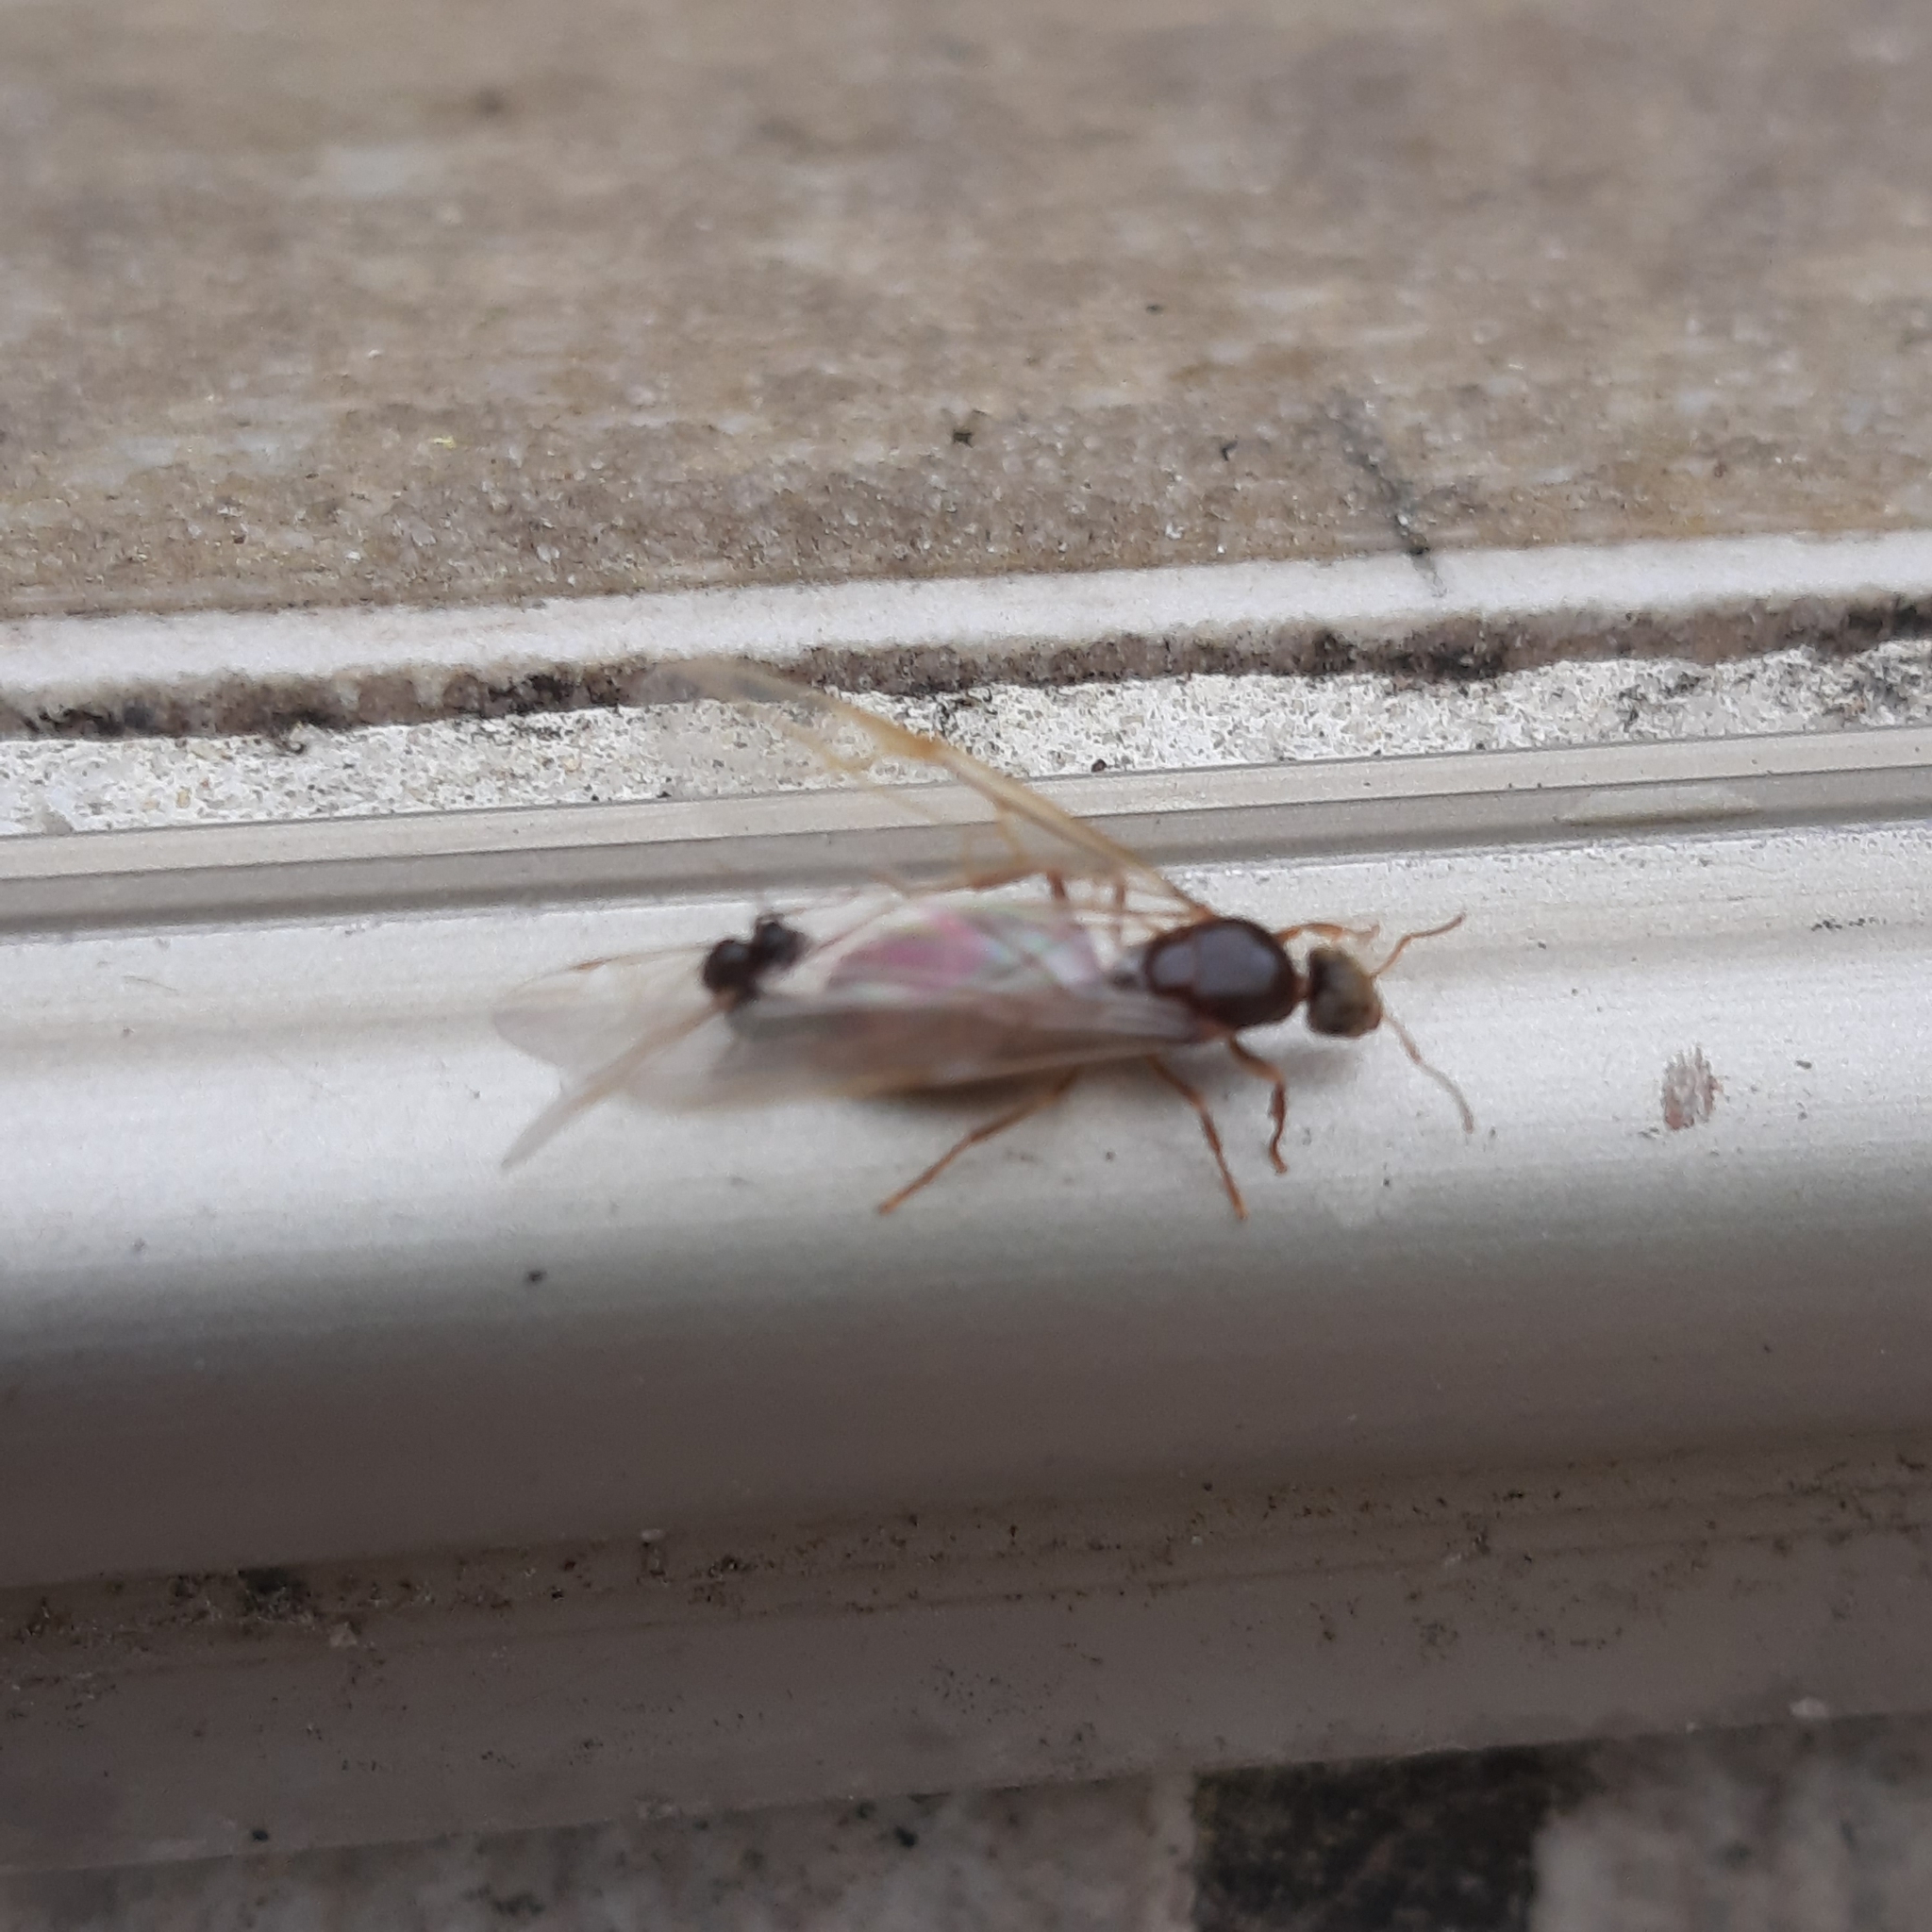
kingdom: Animalia
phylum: Arthropoda
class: Insecta
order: Hymenoptera
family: Formicidae
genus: Lasius
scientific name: Lasius
